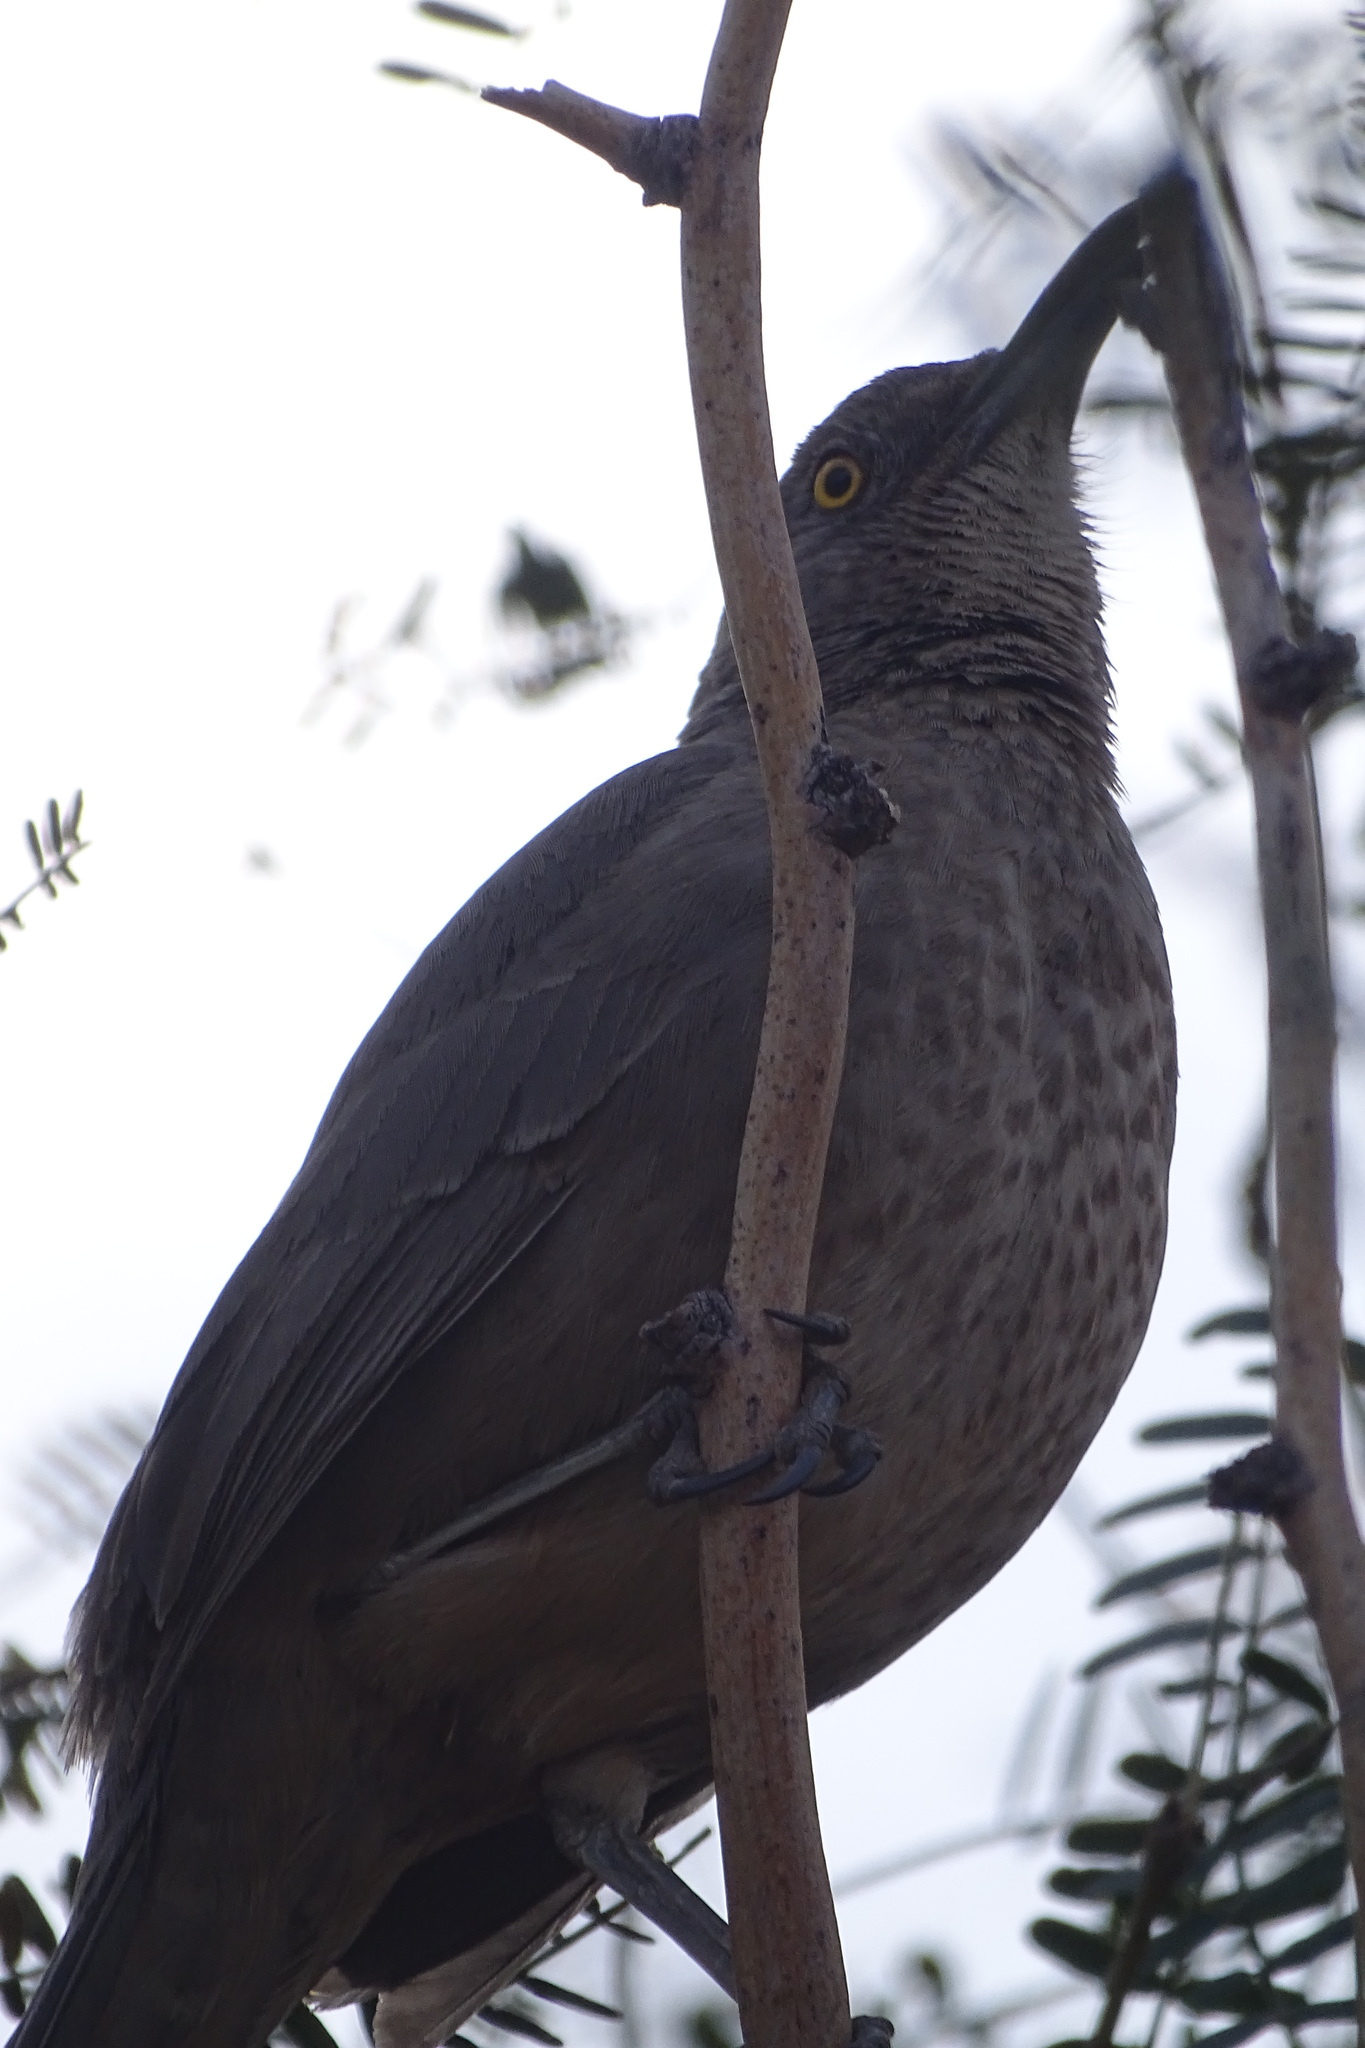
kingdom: Animalia
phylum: Chordata
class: Aves
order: Passeriformes
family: Mimidae
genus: Toxostoma
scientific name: Toxostoma curvirostre
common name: Curve-billed thrasher
